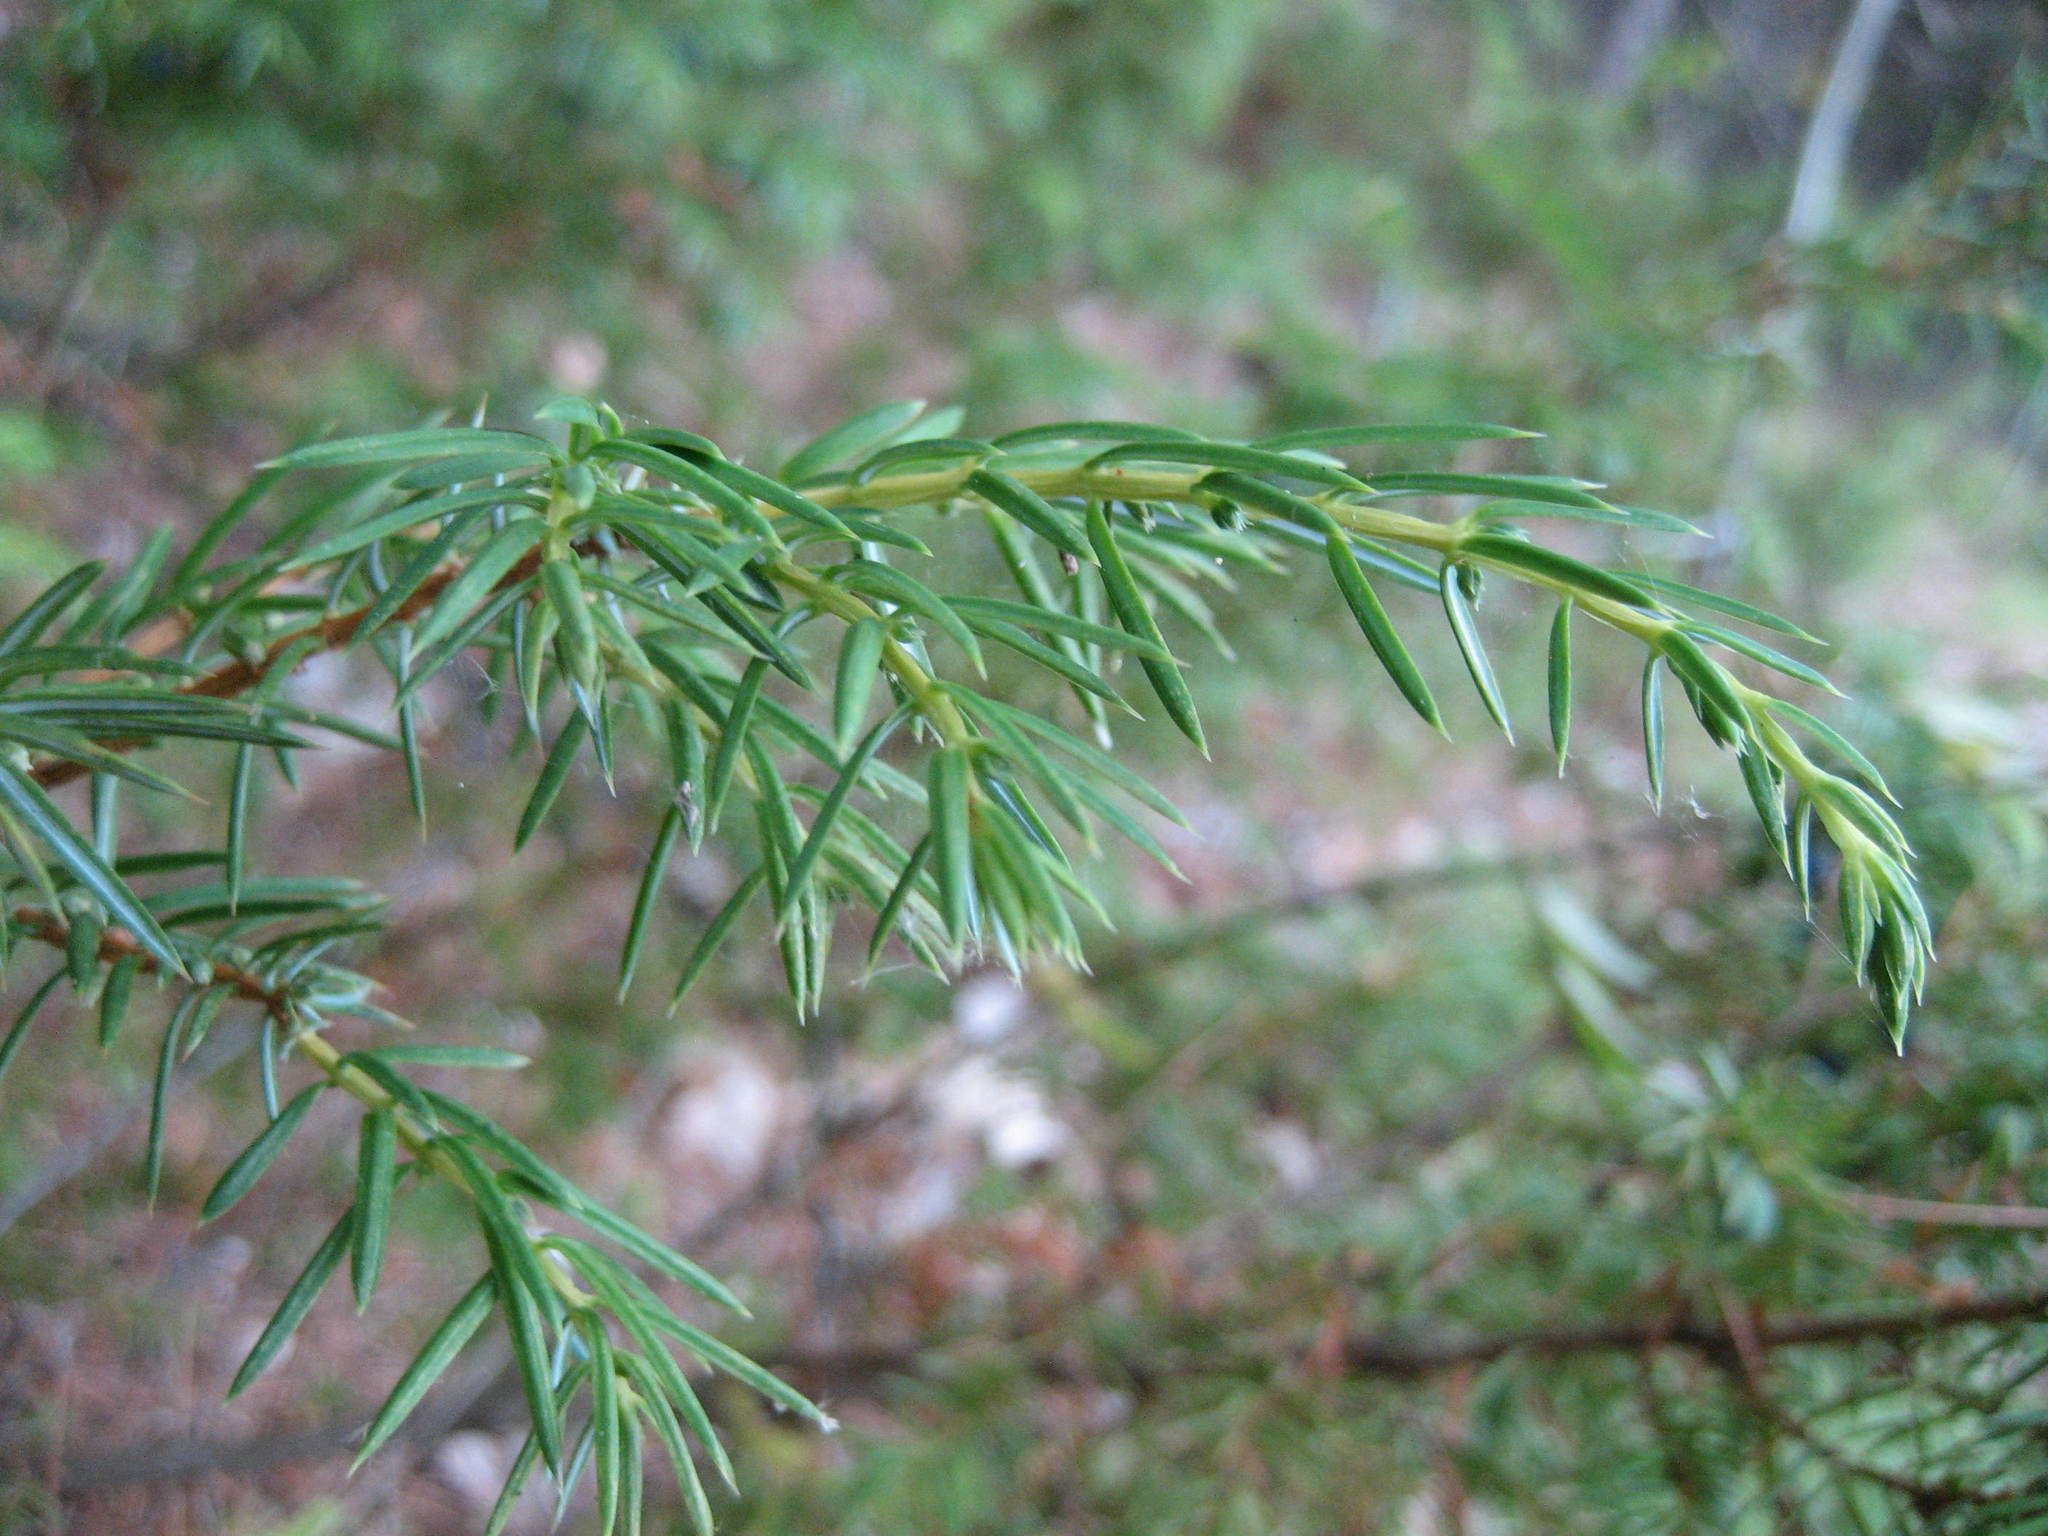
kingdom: Plantae
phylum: Tracheophyta
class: Pinopsida
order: Pinales
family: Cupressaceae
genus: Juniperus
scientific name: Juniperus communis
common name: Common juniper
